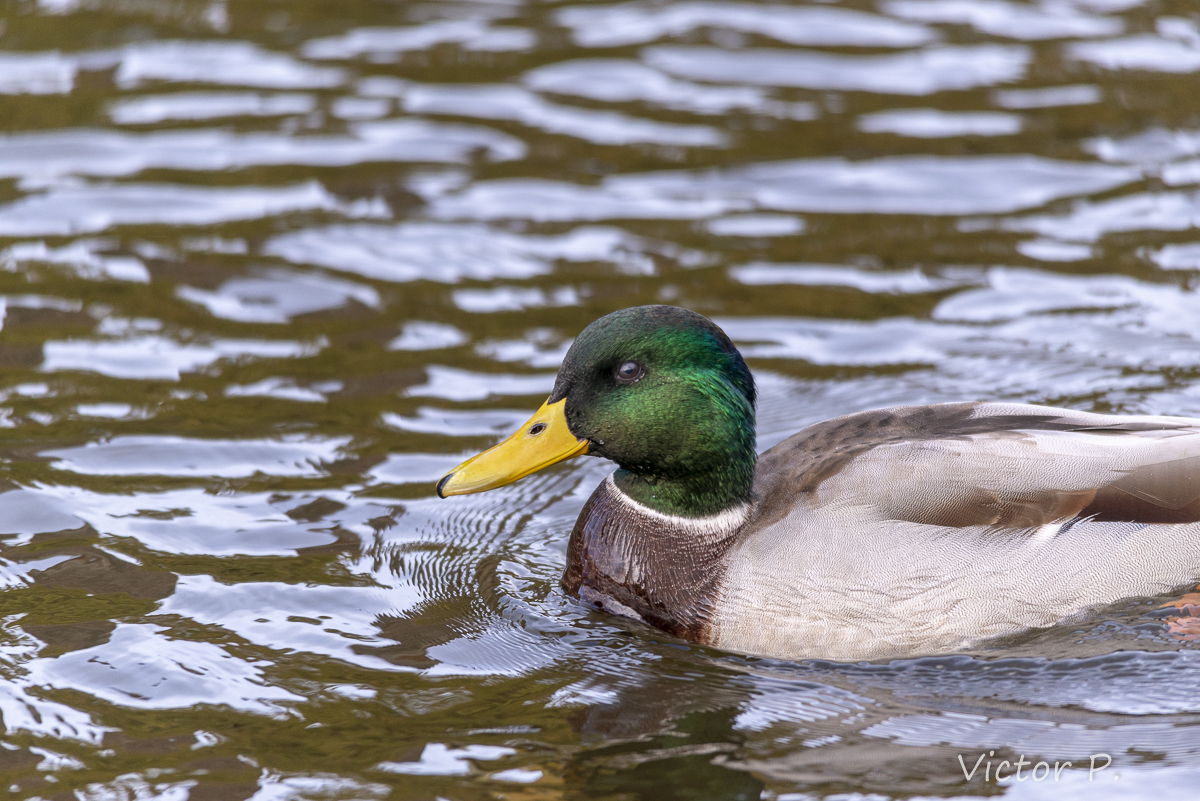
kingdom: Animalia
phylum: Chordata
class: Aves
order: Anseriformes
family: Anatidae
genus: Anas
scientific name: Anas platyrhynchos
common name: Mallard
